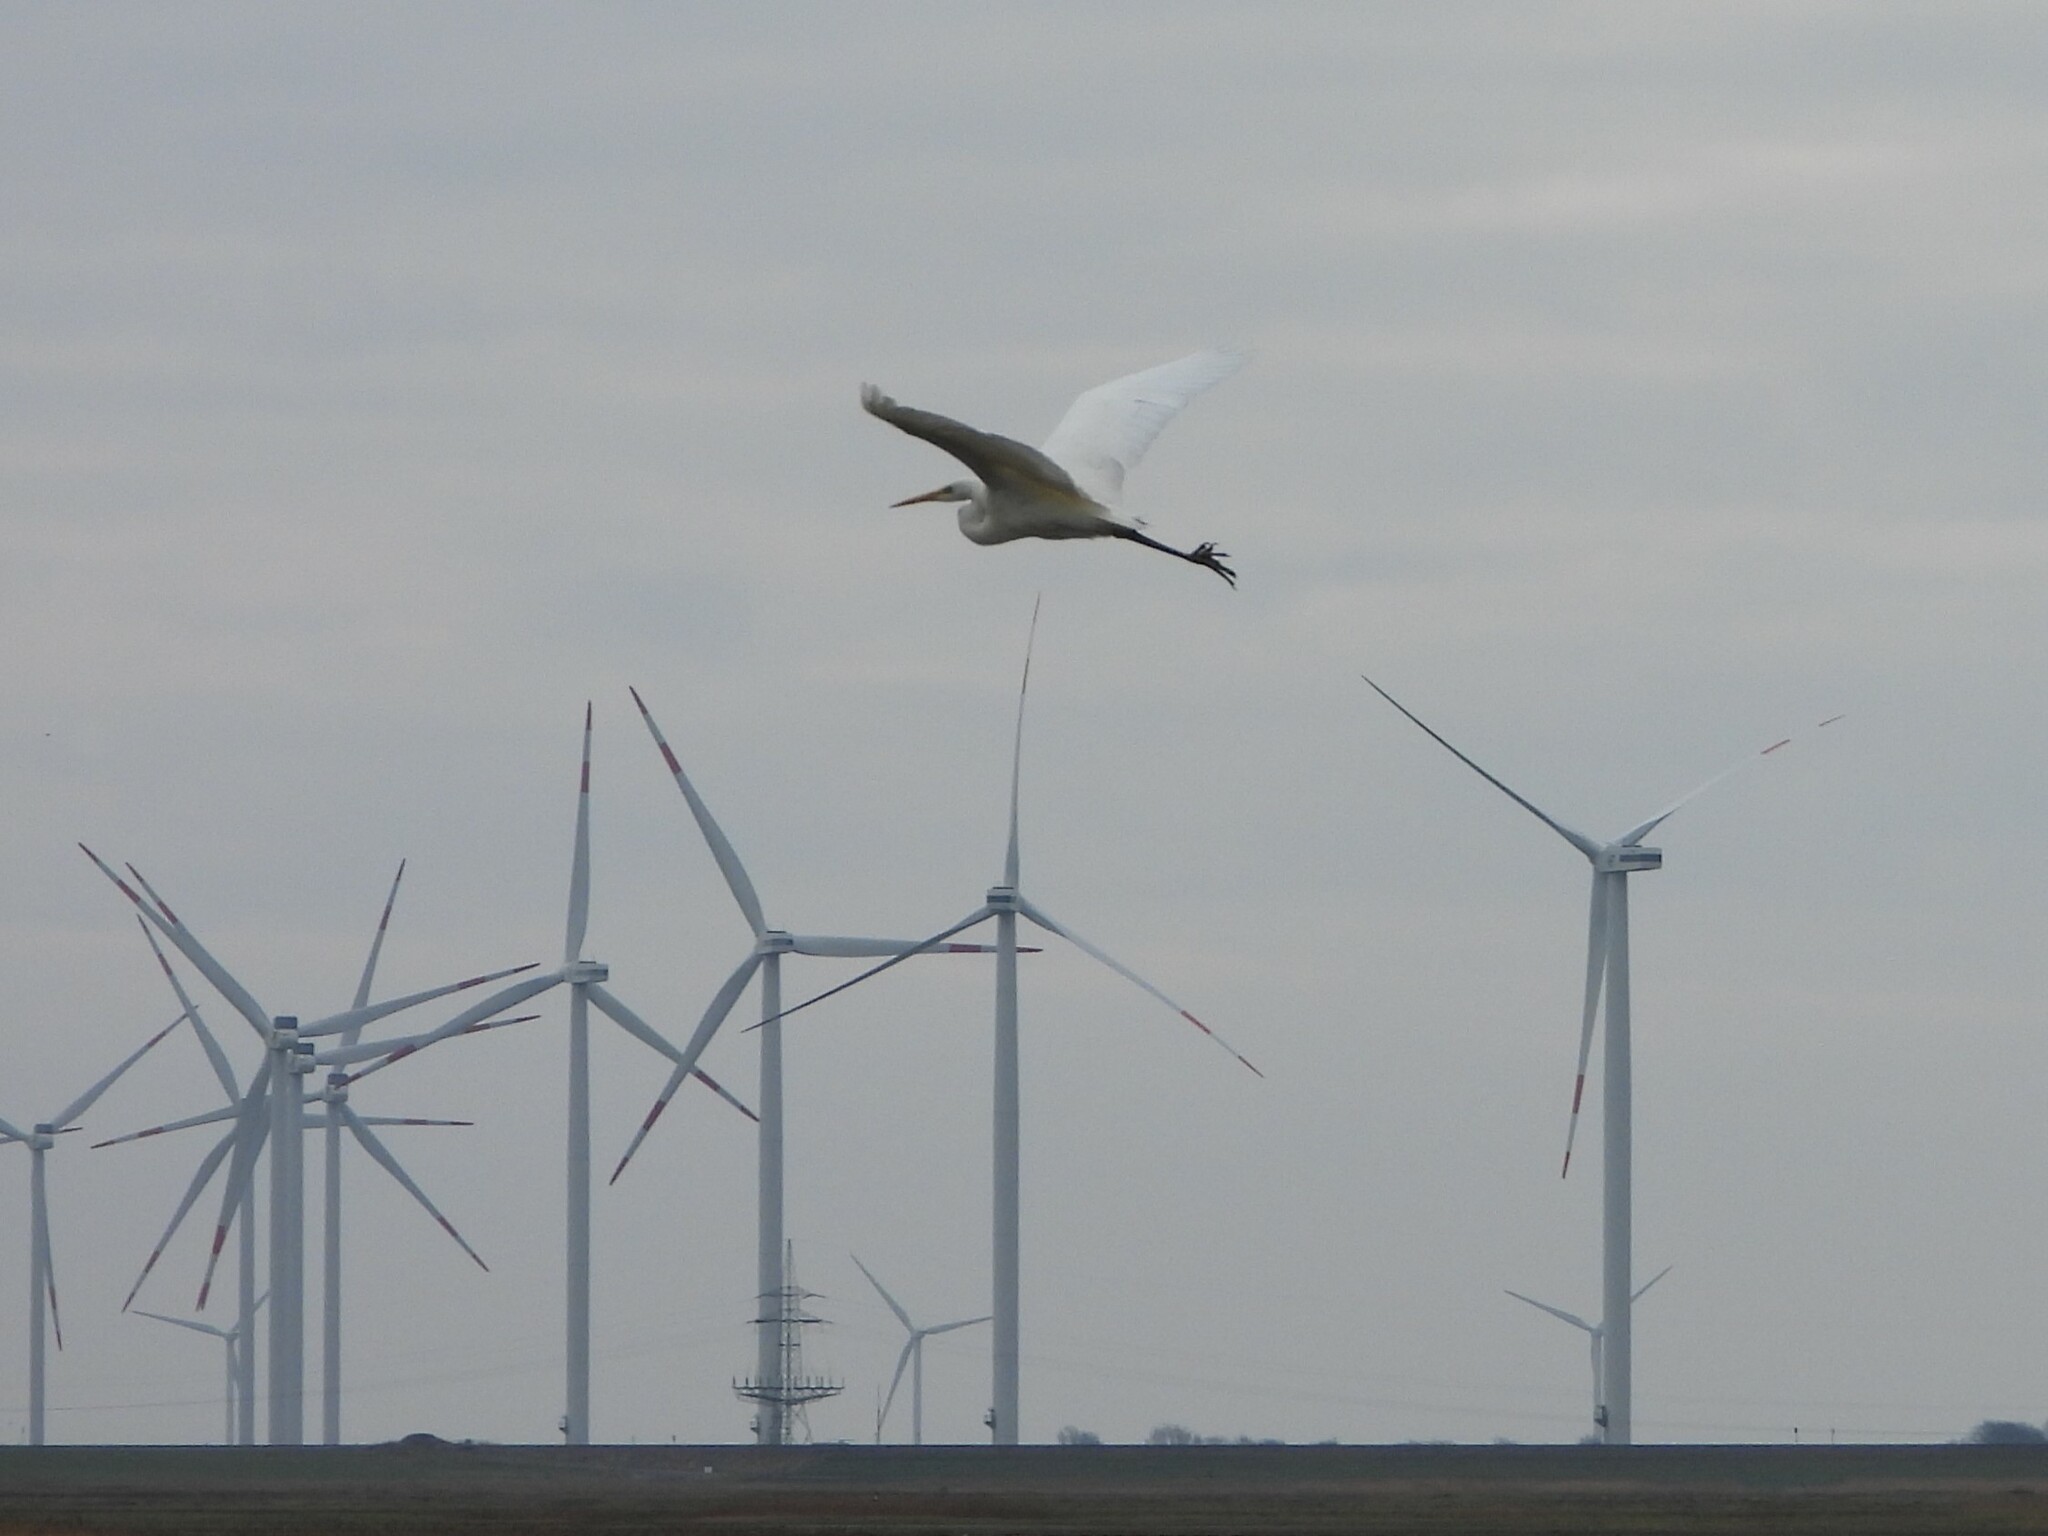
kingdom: Animalia
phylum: Chordata
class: Aves
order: Pelecaniformes
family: Ardeidae
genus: Ardea
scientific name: Ardea alba
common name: Great egret
